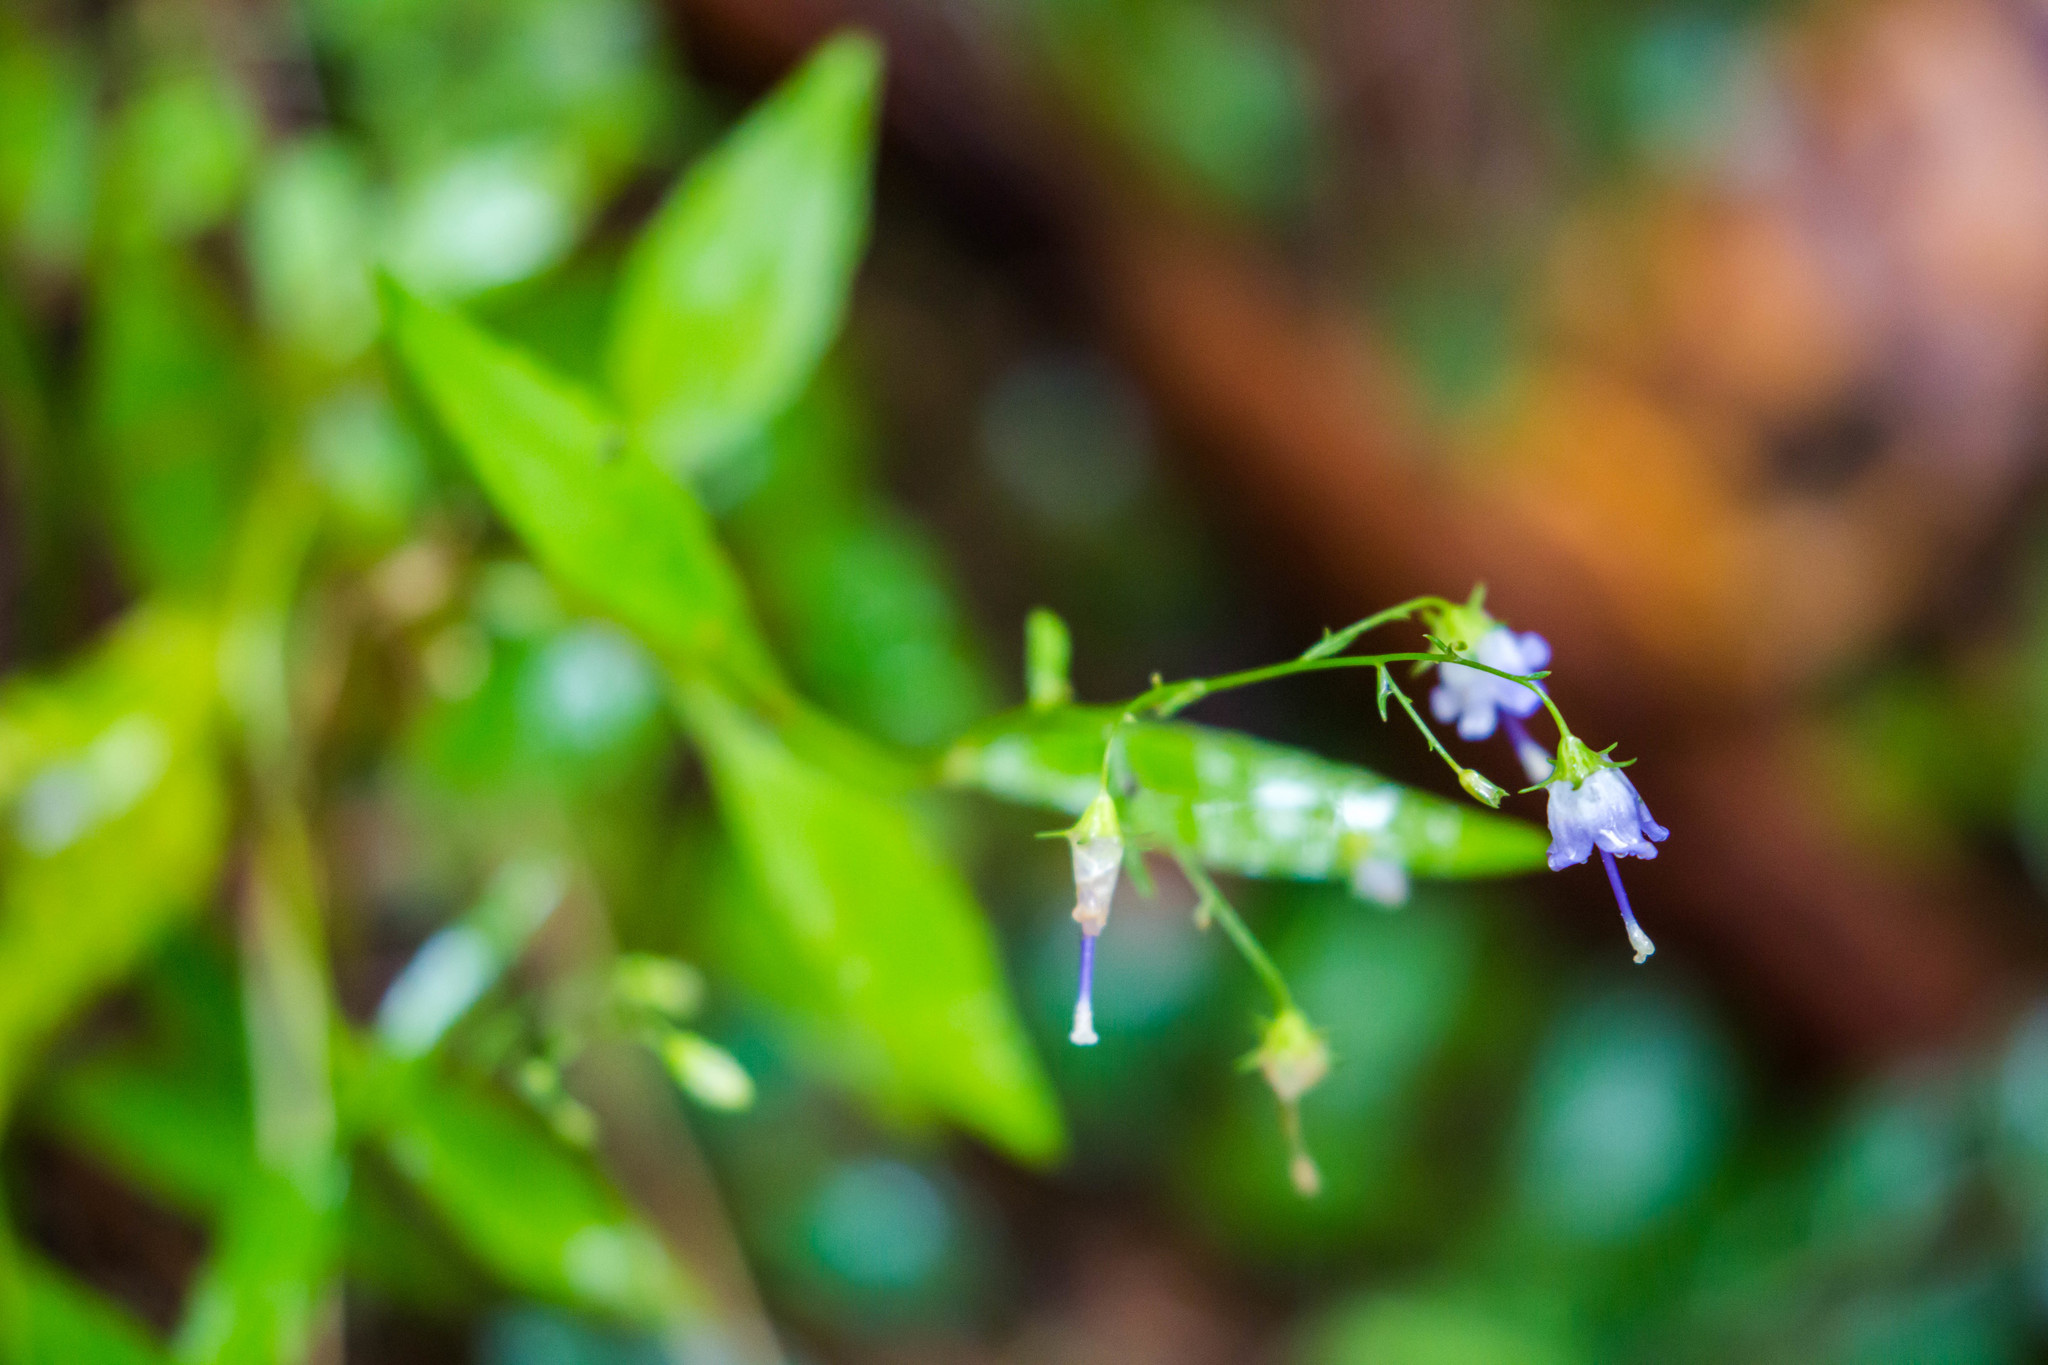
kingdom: Plantae
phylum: Tracheophyta
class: Magnoliopsida
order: Asterales
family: Campanulaceae
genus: Campanula
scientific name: Campanula divaricata
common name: Appalachian bellflower
